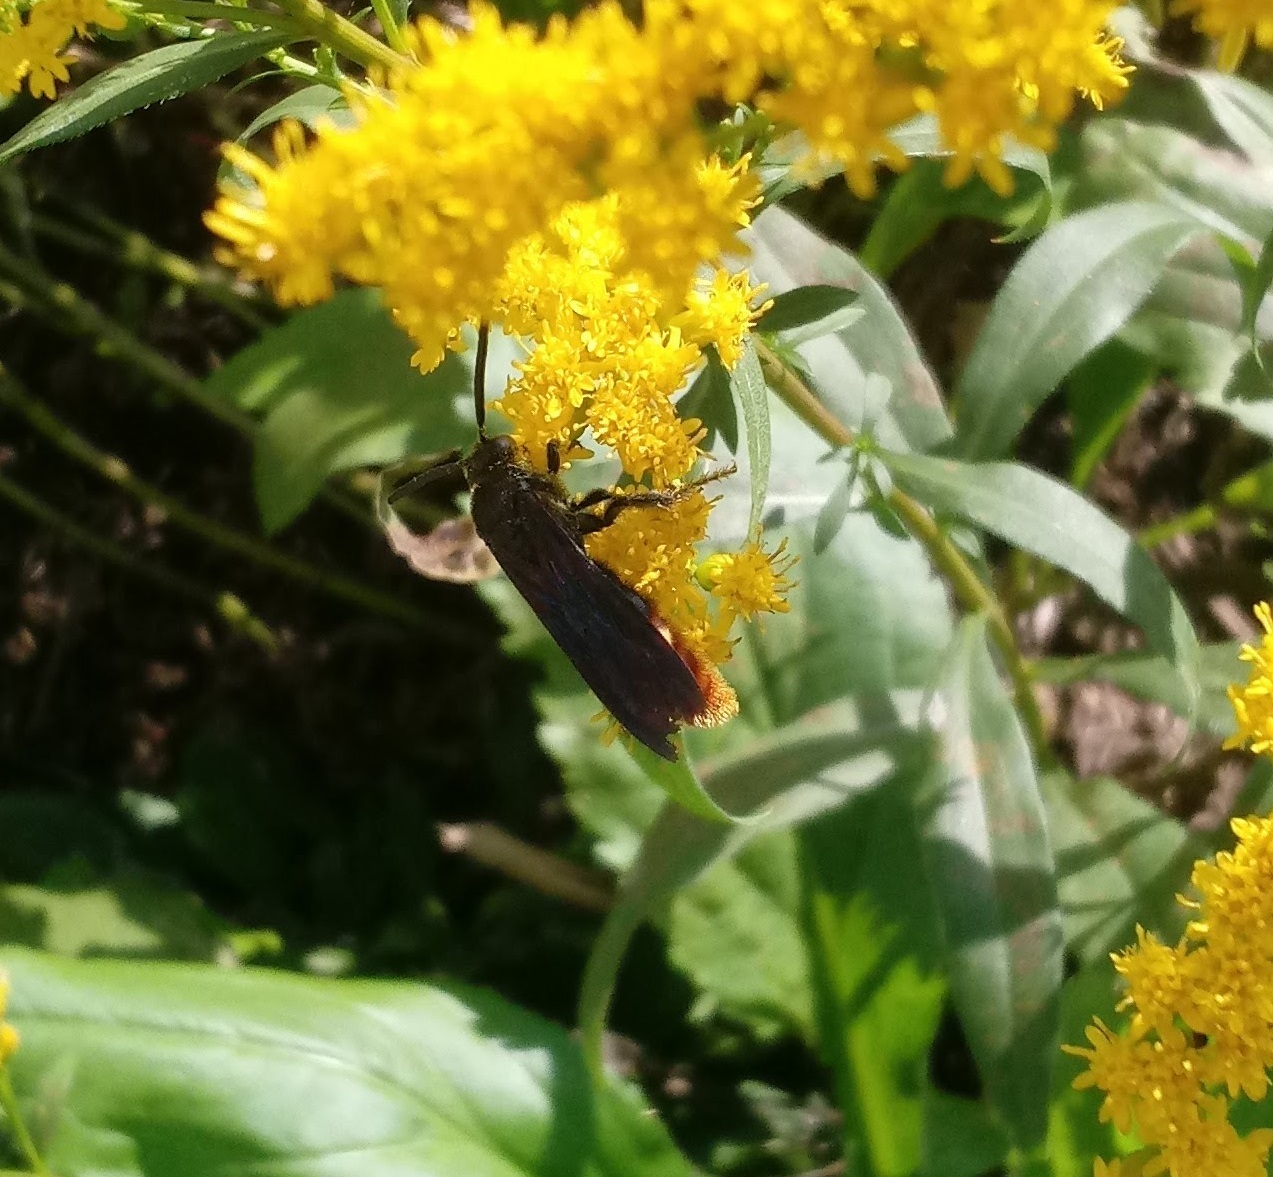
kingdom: Animalia
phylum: Arthropoda
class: Insecta
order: Hymenoptera
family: Scoliidae
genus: Scolia
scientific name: Scolia dubia
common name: Blue-winged scoliid wasp
